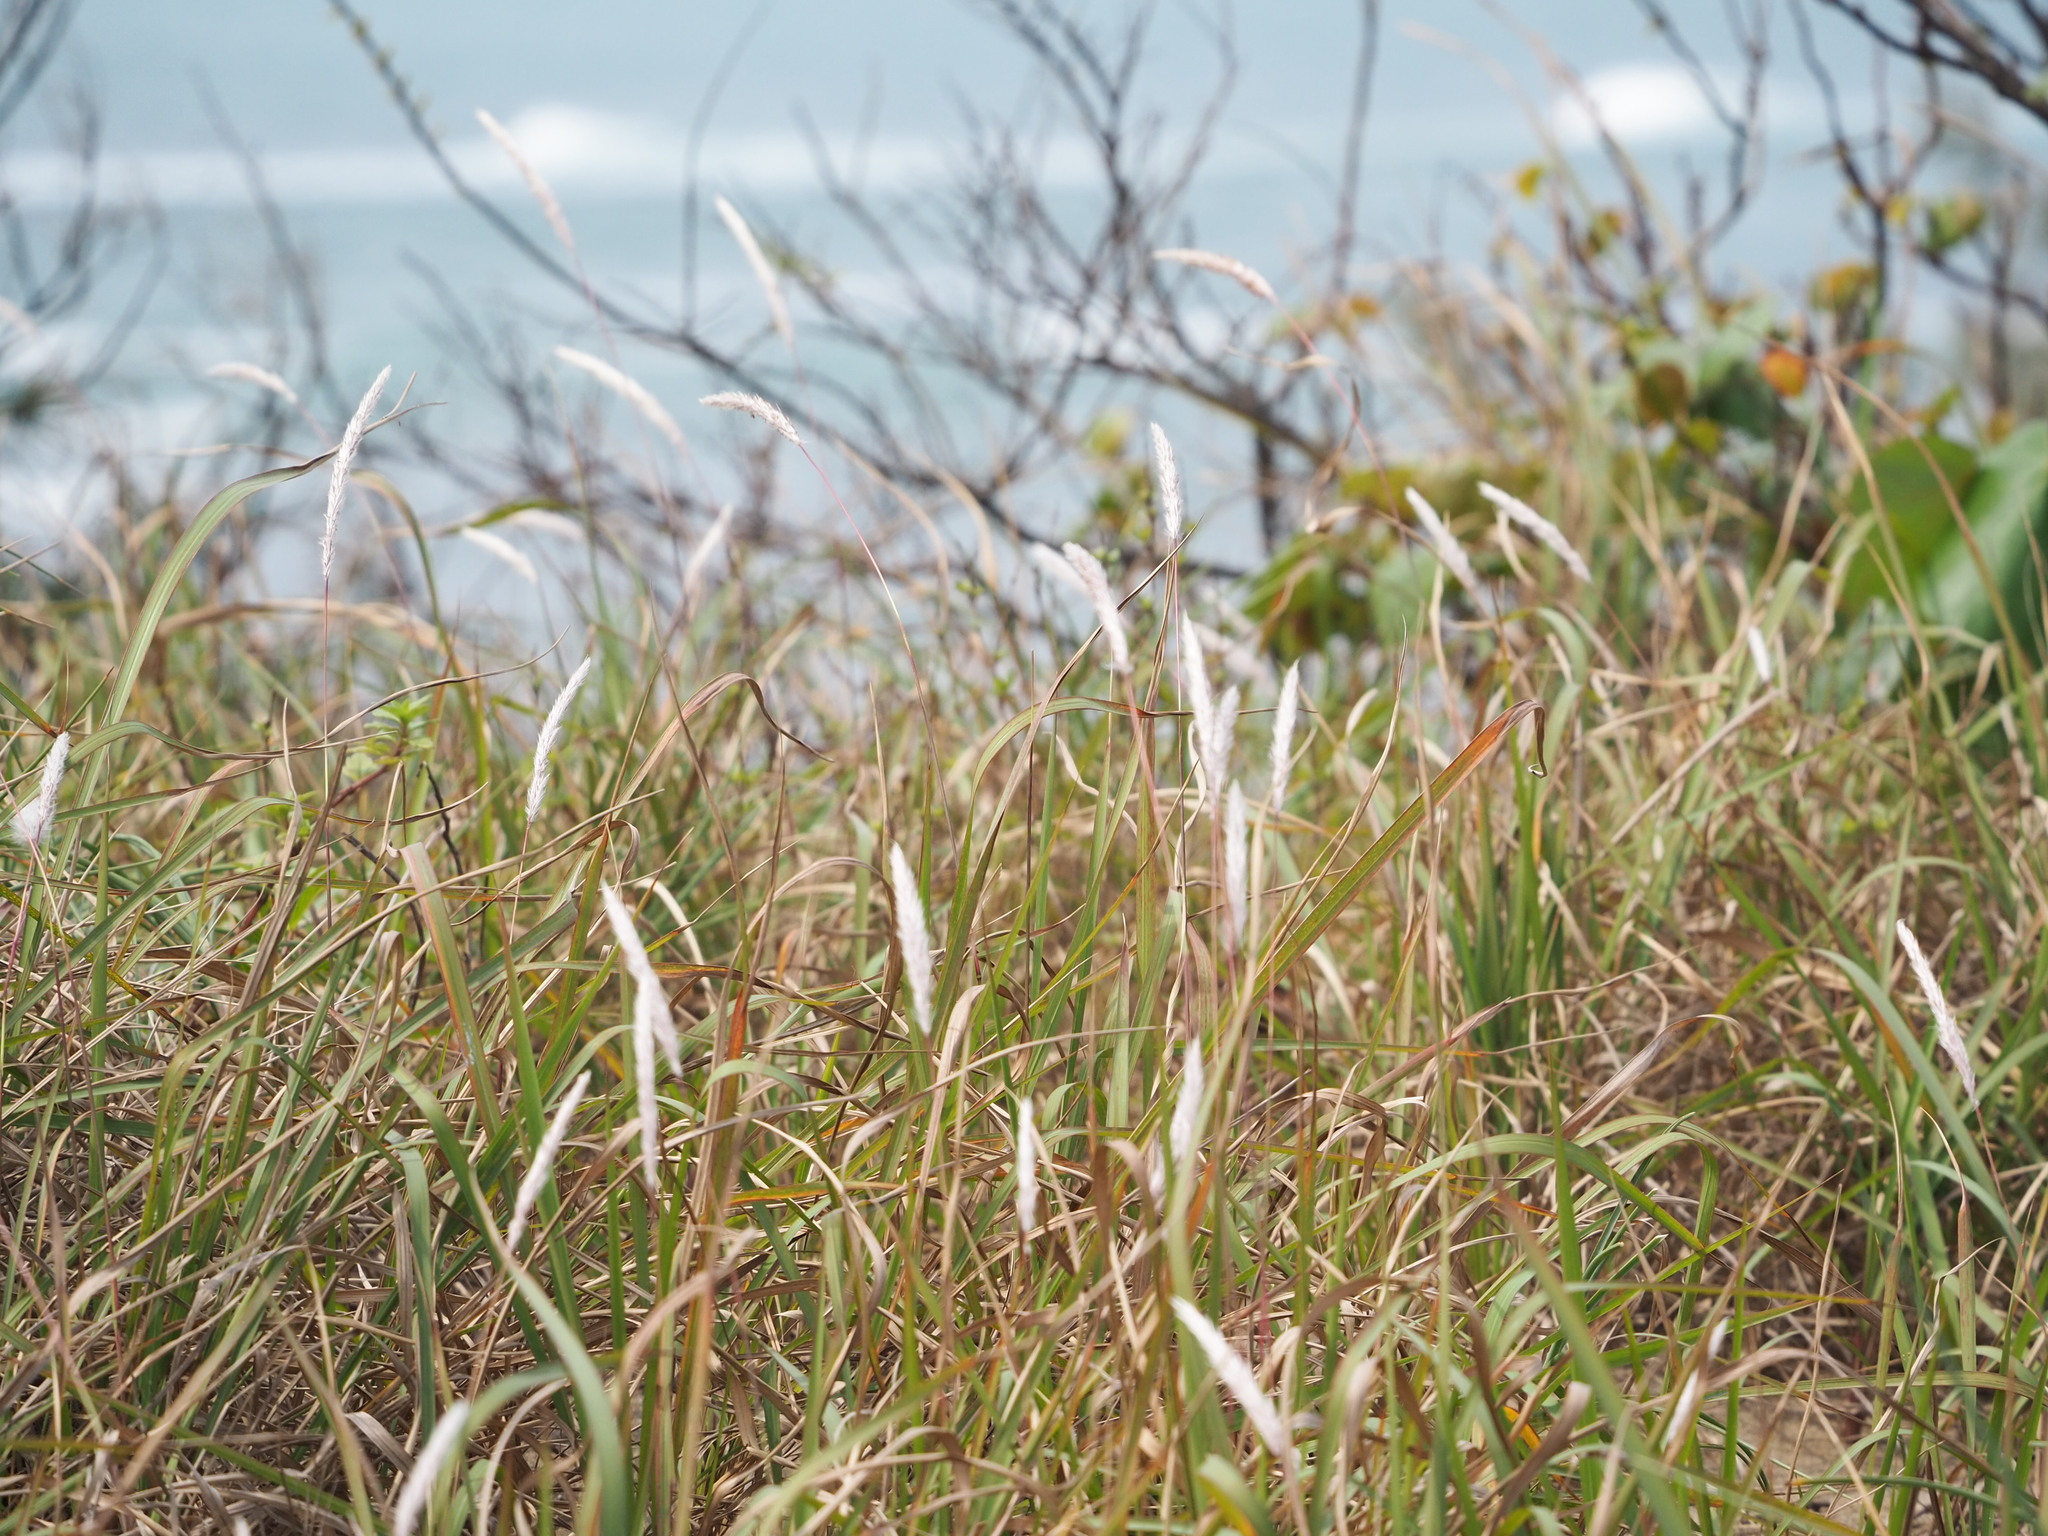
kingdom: Plantae
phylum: Tracheophyta
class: Liliopsida
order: Poales
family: Poaceae
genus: Imperata
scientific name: Imperata cylindrica
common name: Cogongrass
